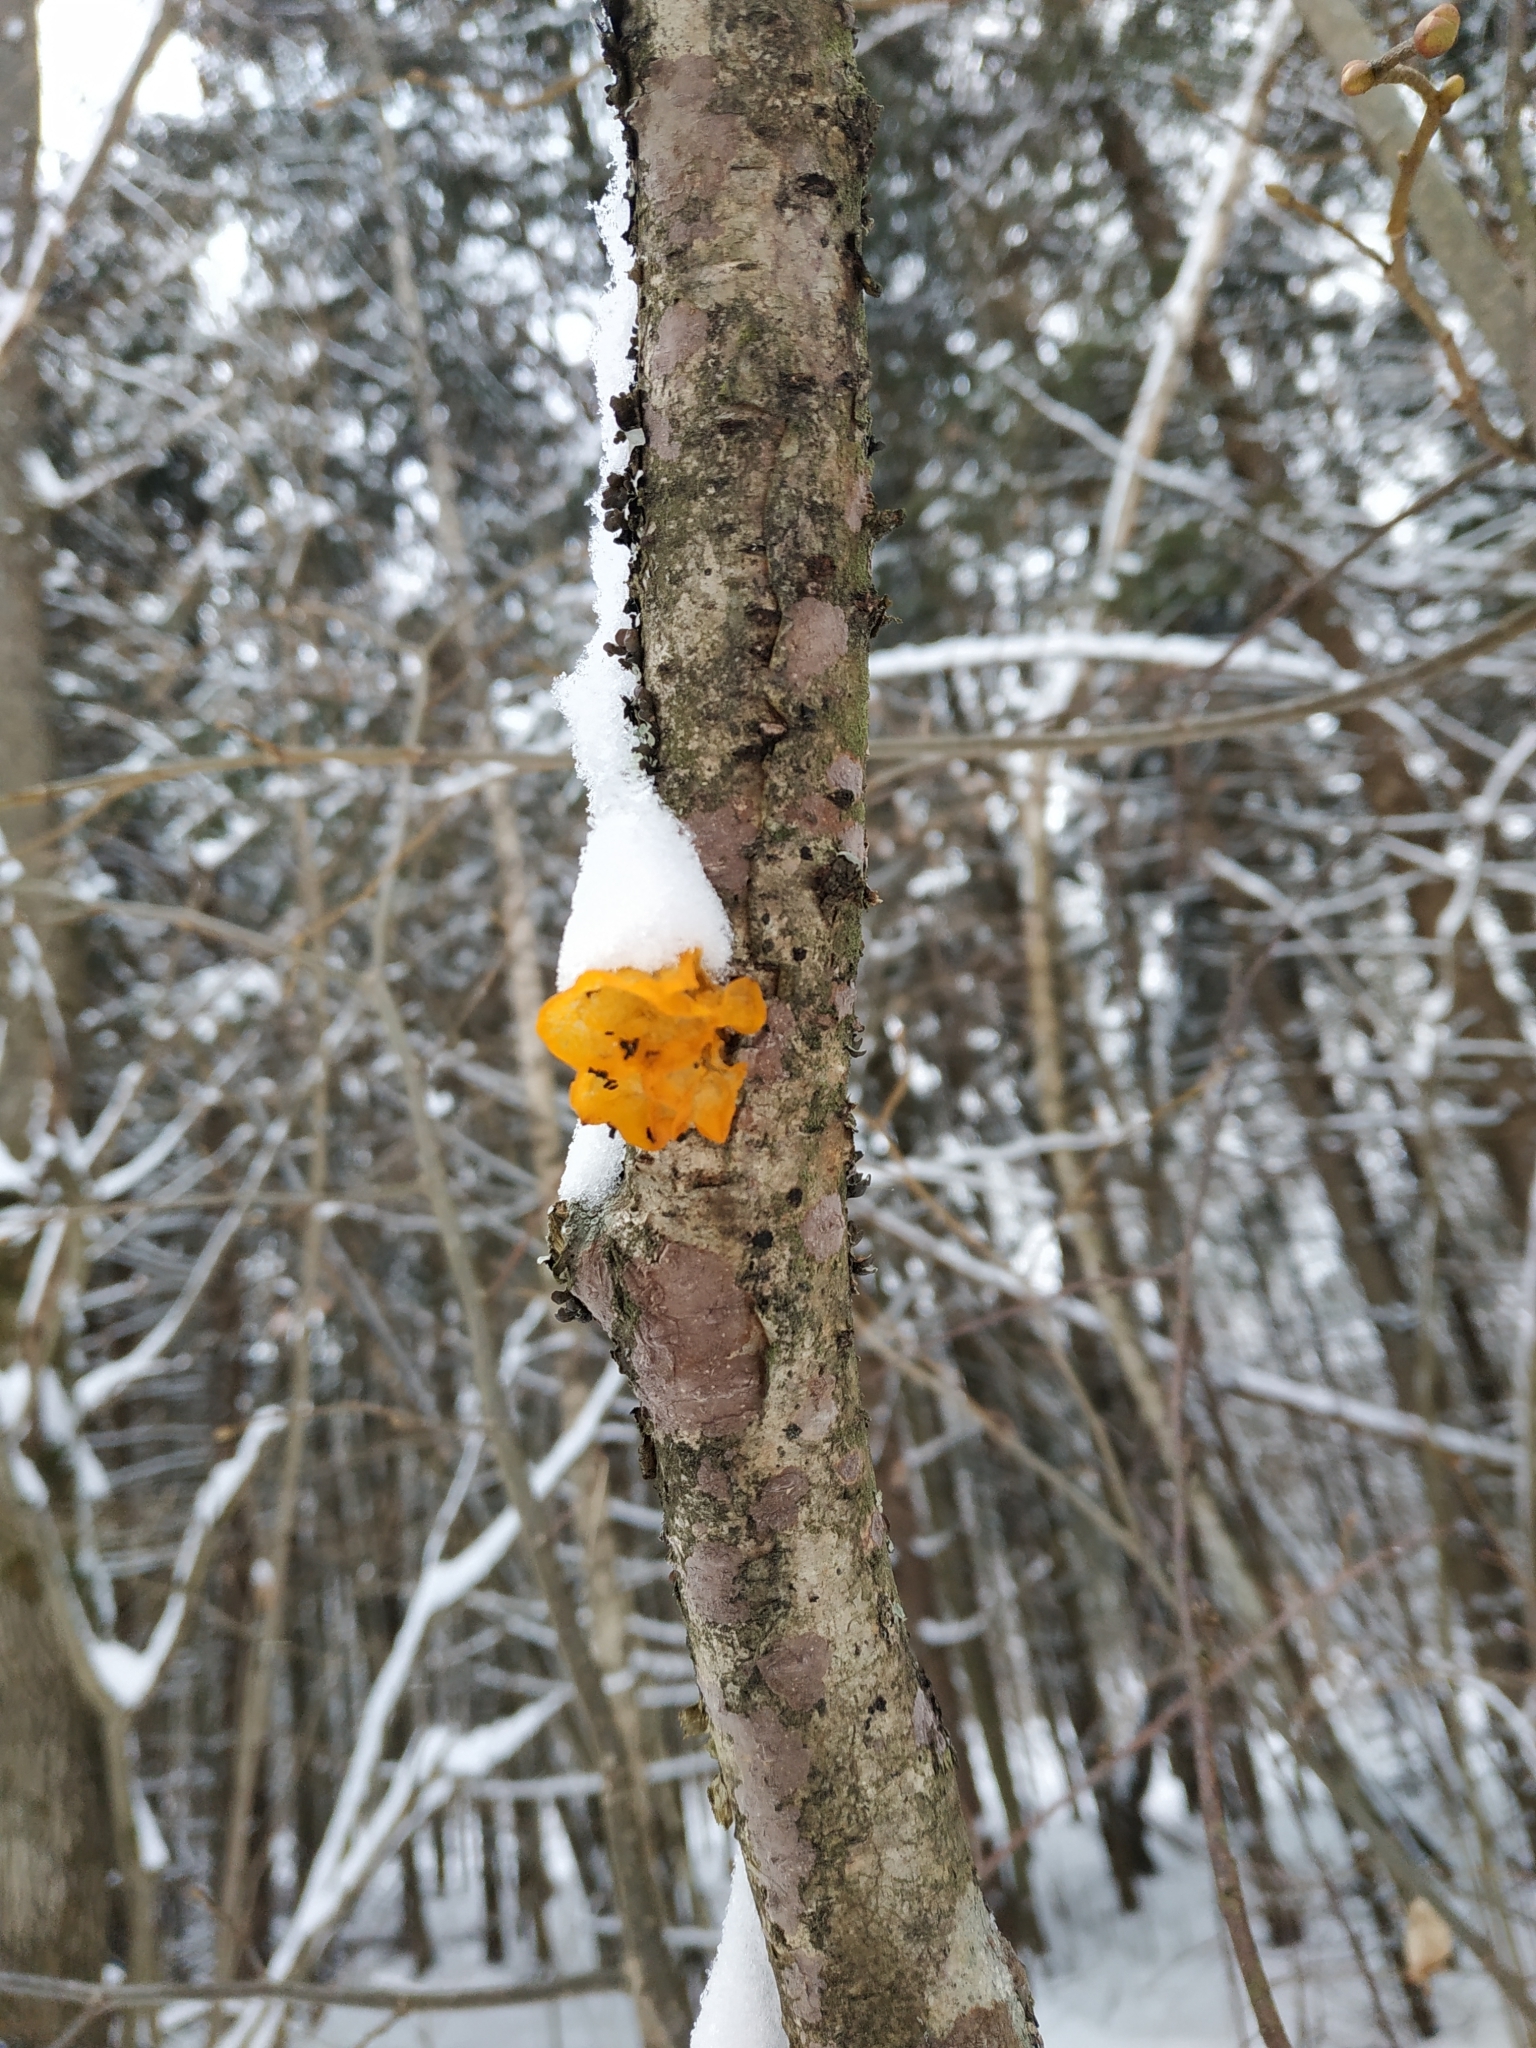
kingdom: Fungi
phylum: Basidiomycota
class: Tremellomycetes
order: Tremellales
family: Tremellaceae
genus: Tremella
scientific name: Tremella mesenterica
